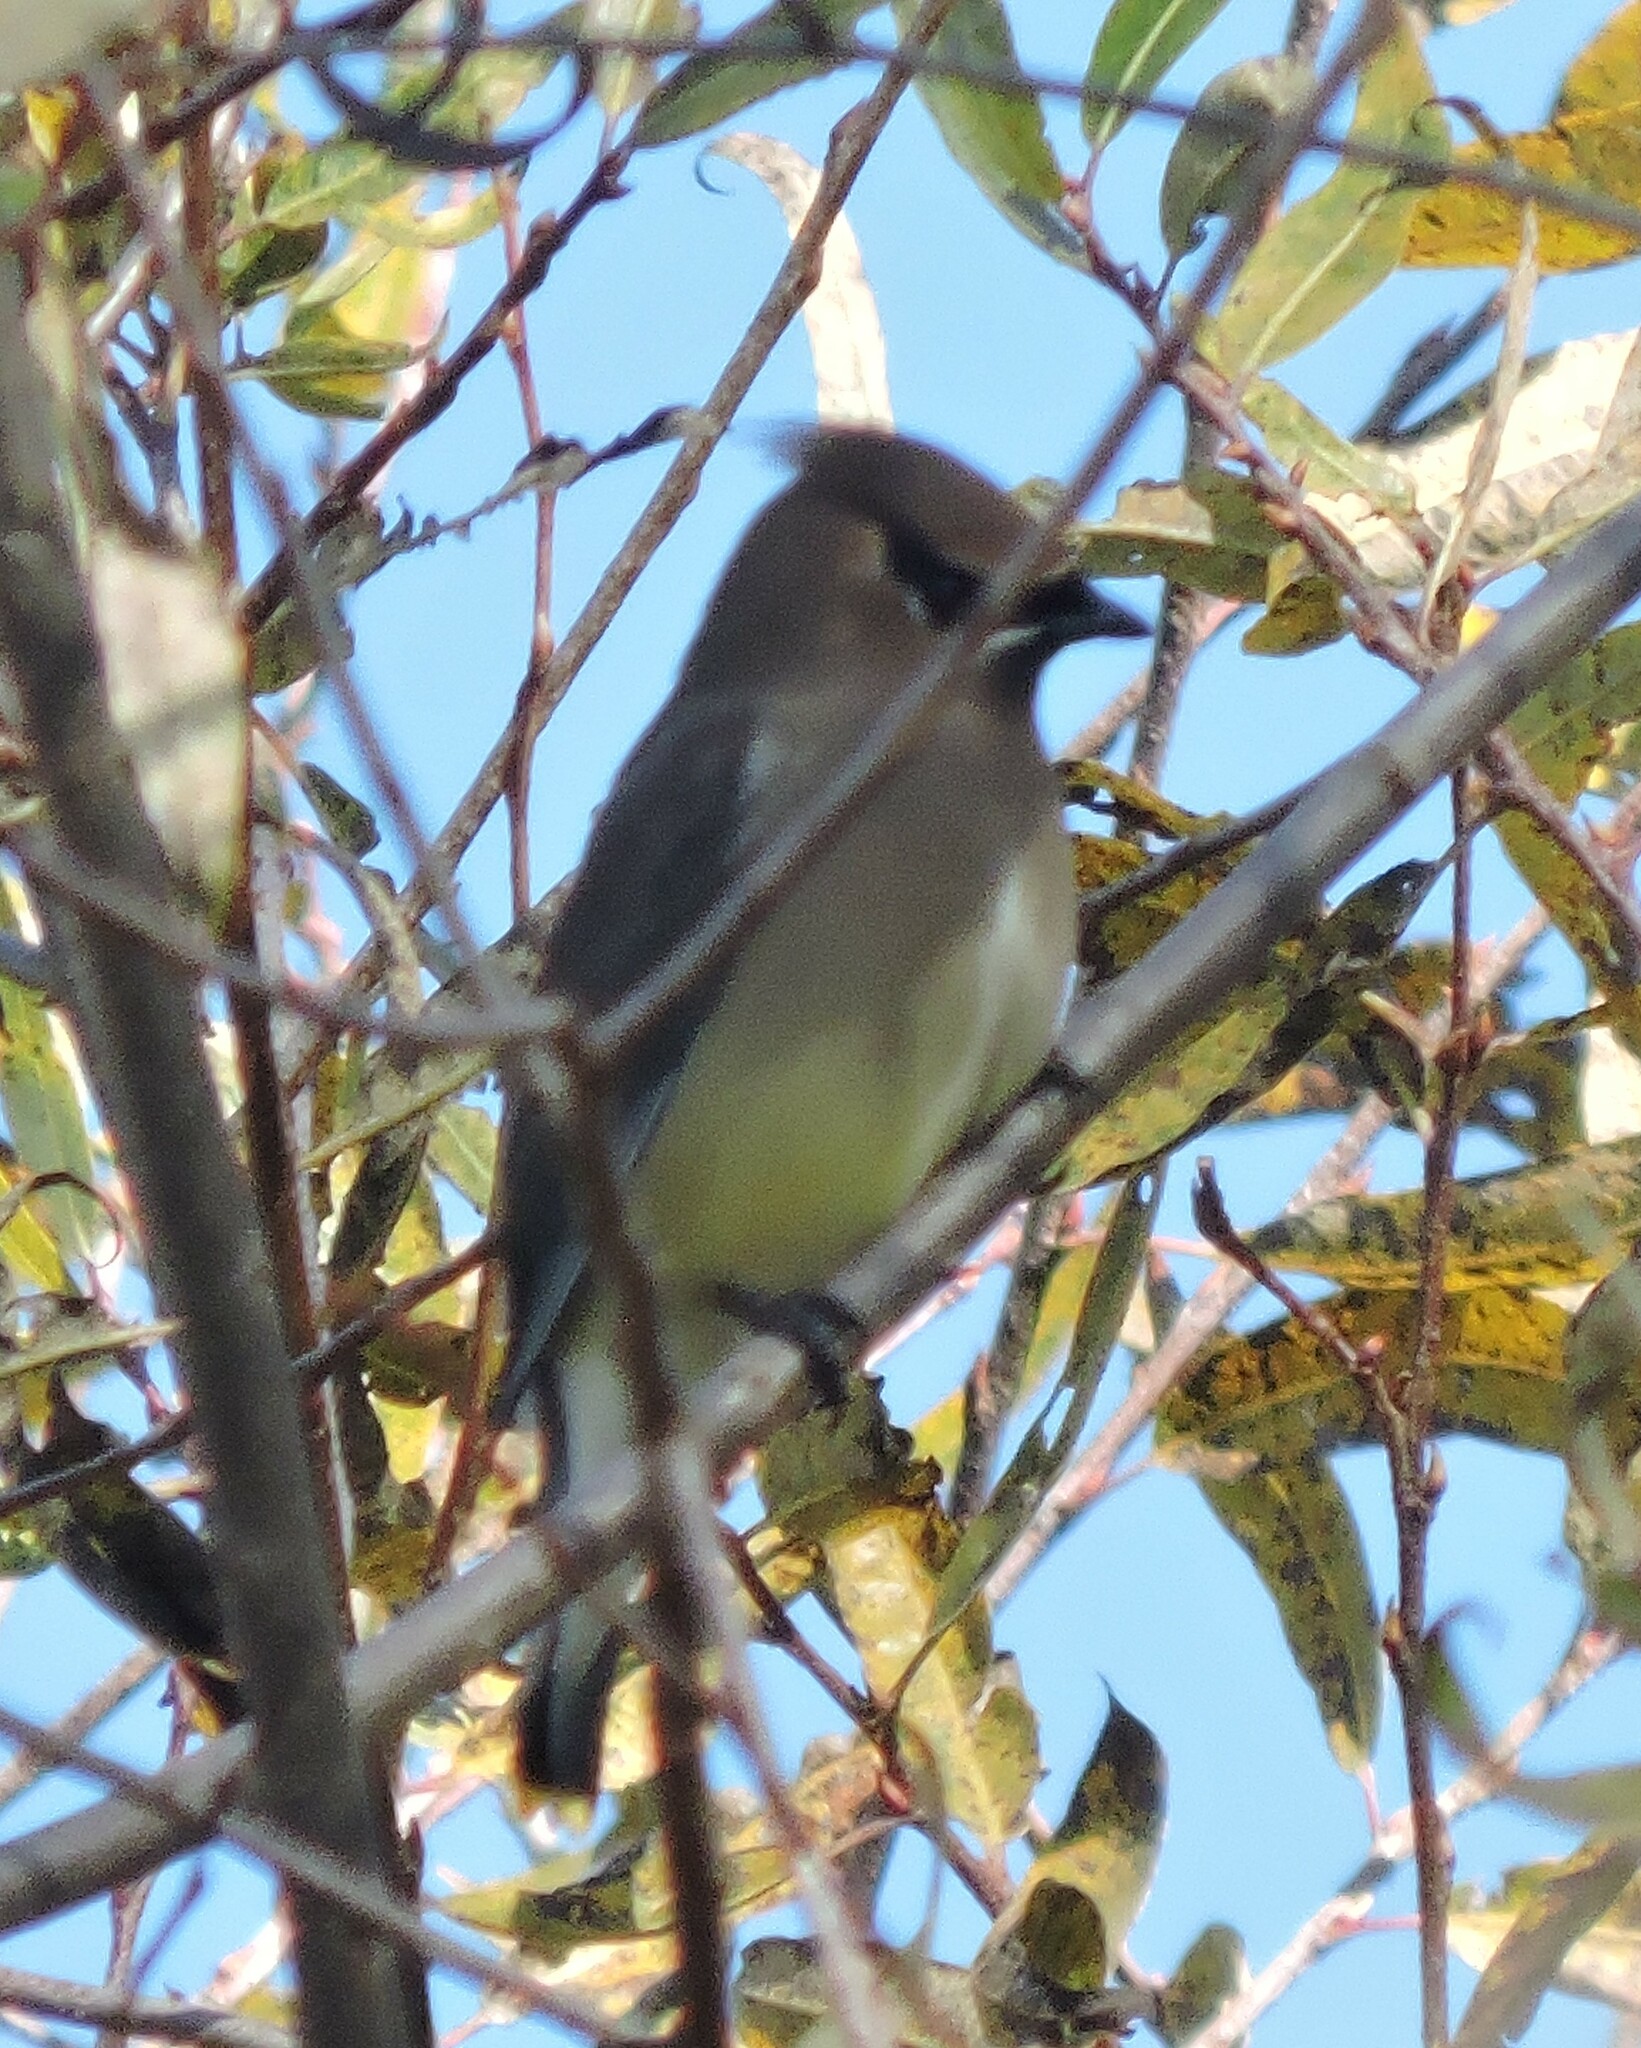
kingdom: Animalia
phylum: Chordata
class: Aves
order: Passeriformes
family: Bombycillidae
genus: Bombycilla
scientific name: Bombycilla cedrorum
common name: Cedar waxwing
